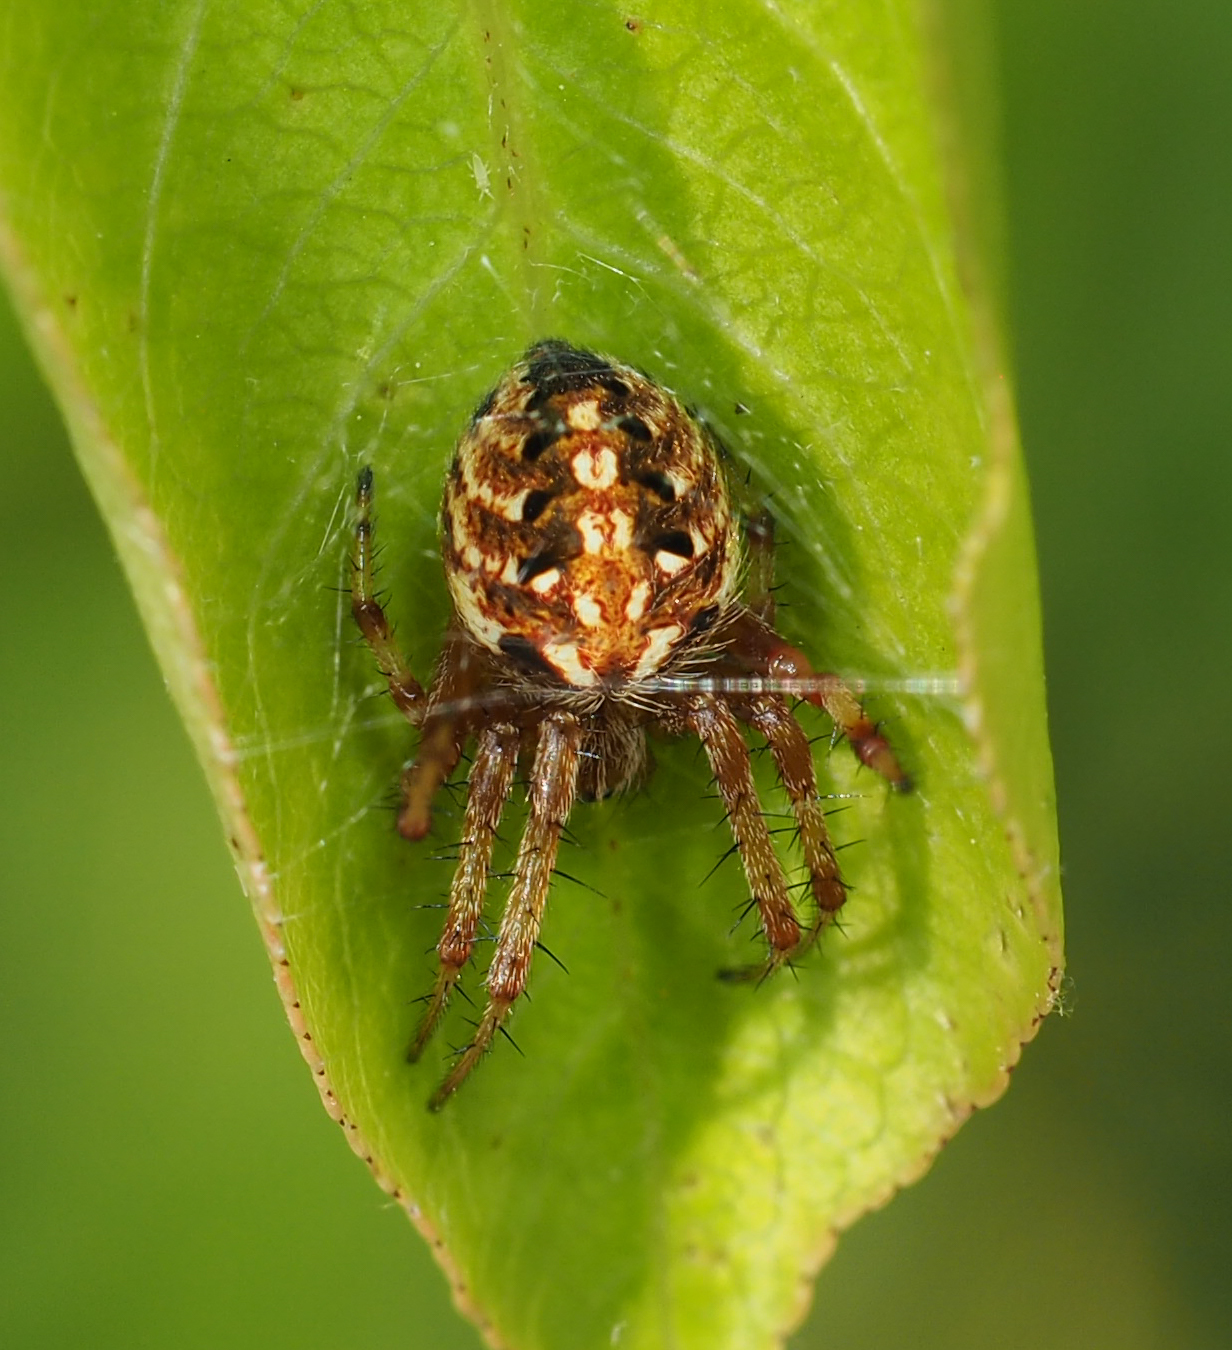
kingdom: Animalia
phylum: Arthropoda
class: Arachnida
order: Araneae
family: Araneidae
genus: Neoscona
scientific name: Neoscona arabesca
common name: Orb weavers
